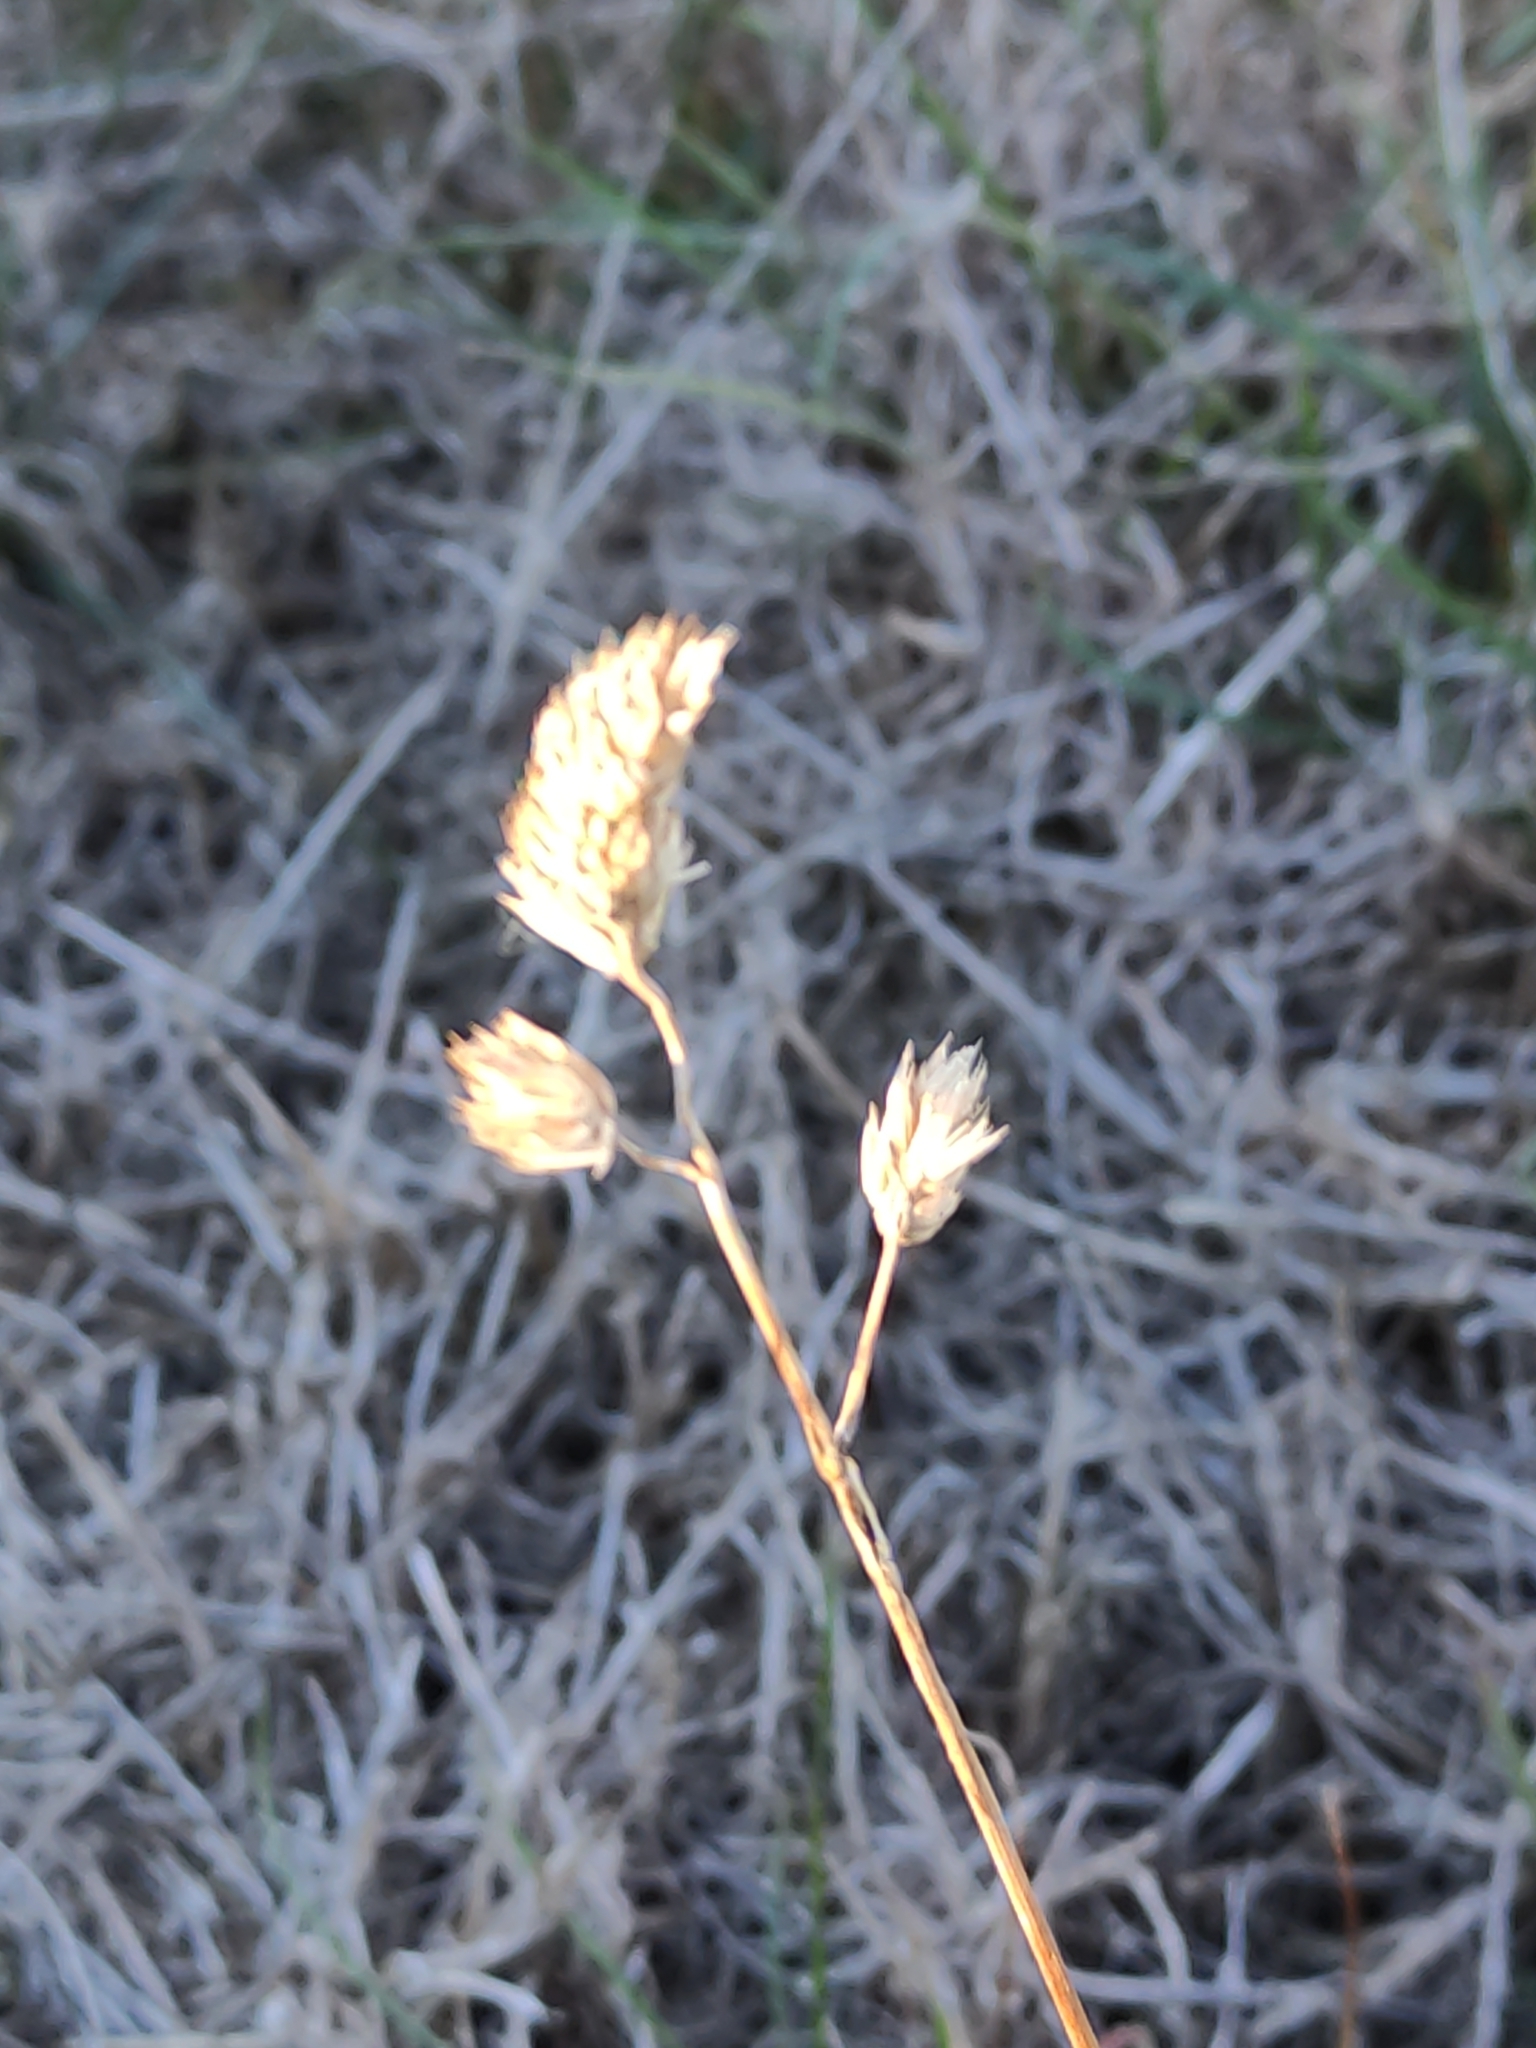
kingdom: Plantae
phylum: Tracheophyta
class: Liliopsida
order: Poales
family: Poaceae
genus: Dactylis
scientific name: Dactylis glomerata
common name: Orchardgrass
